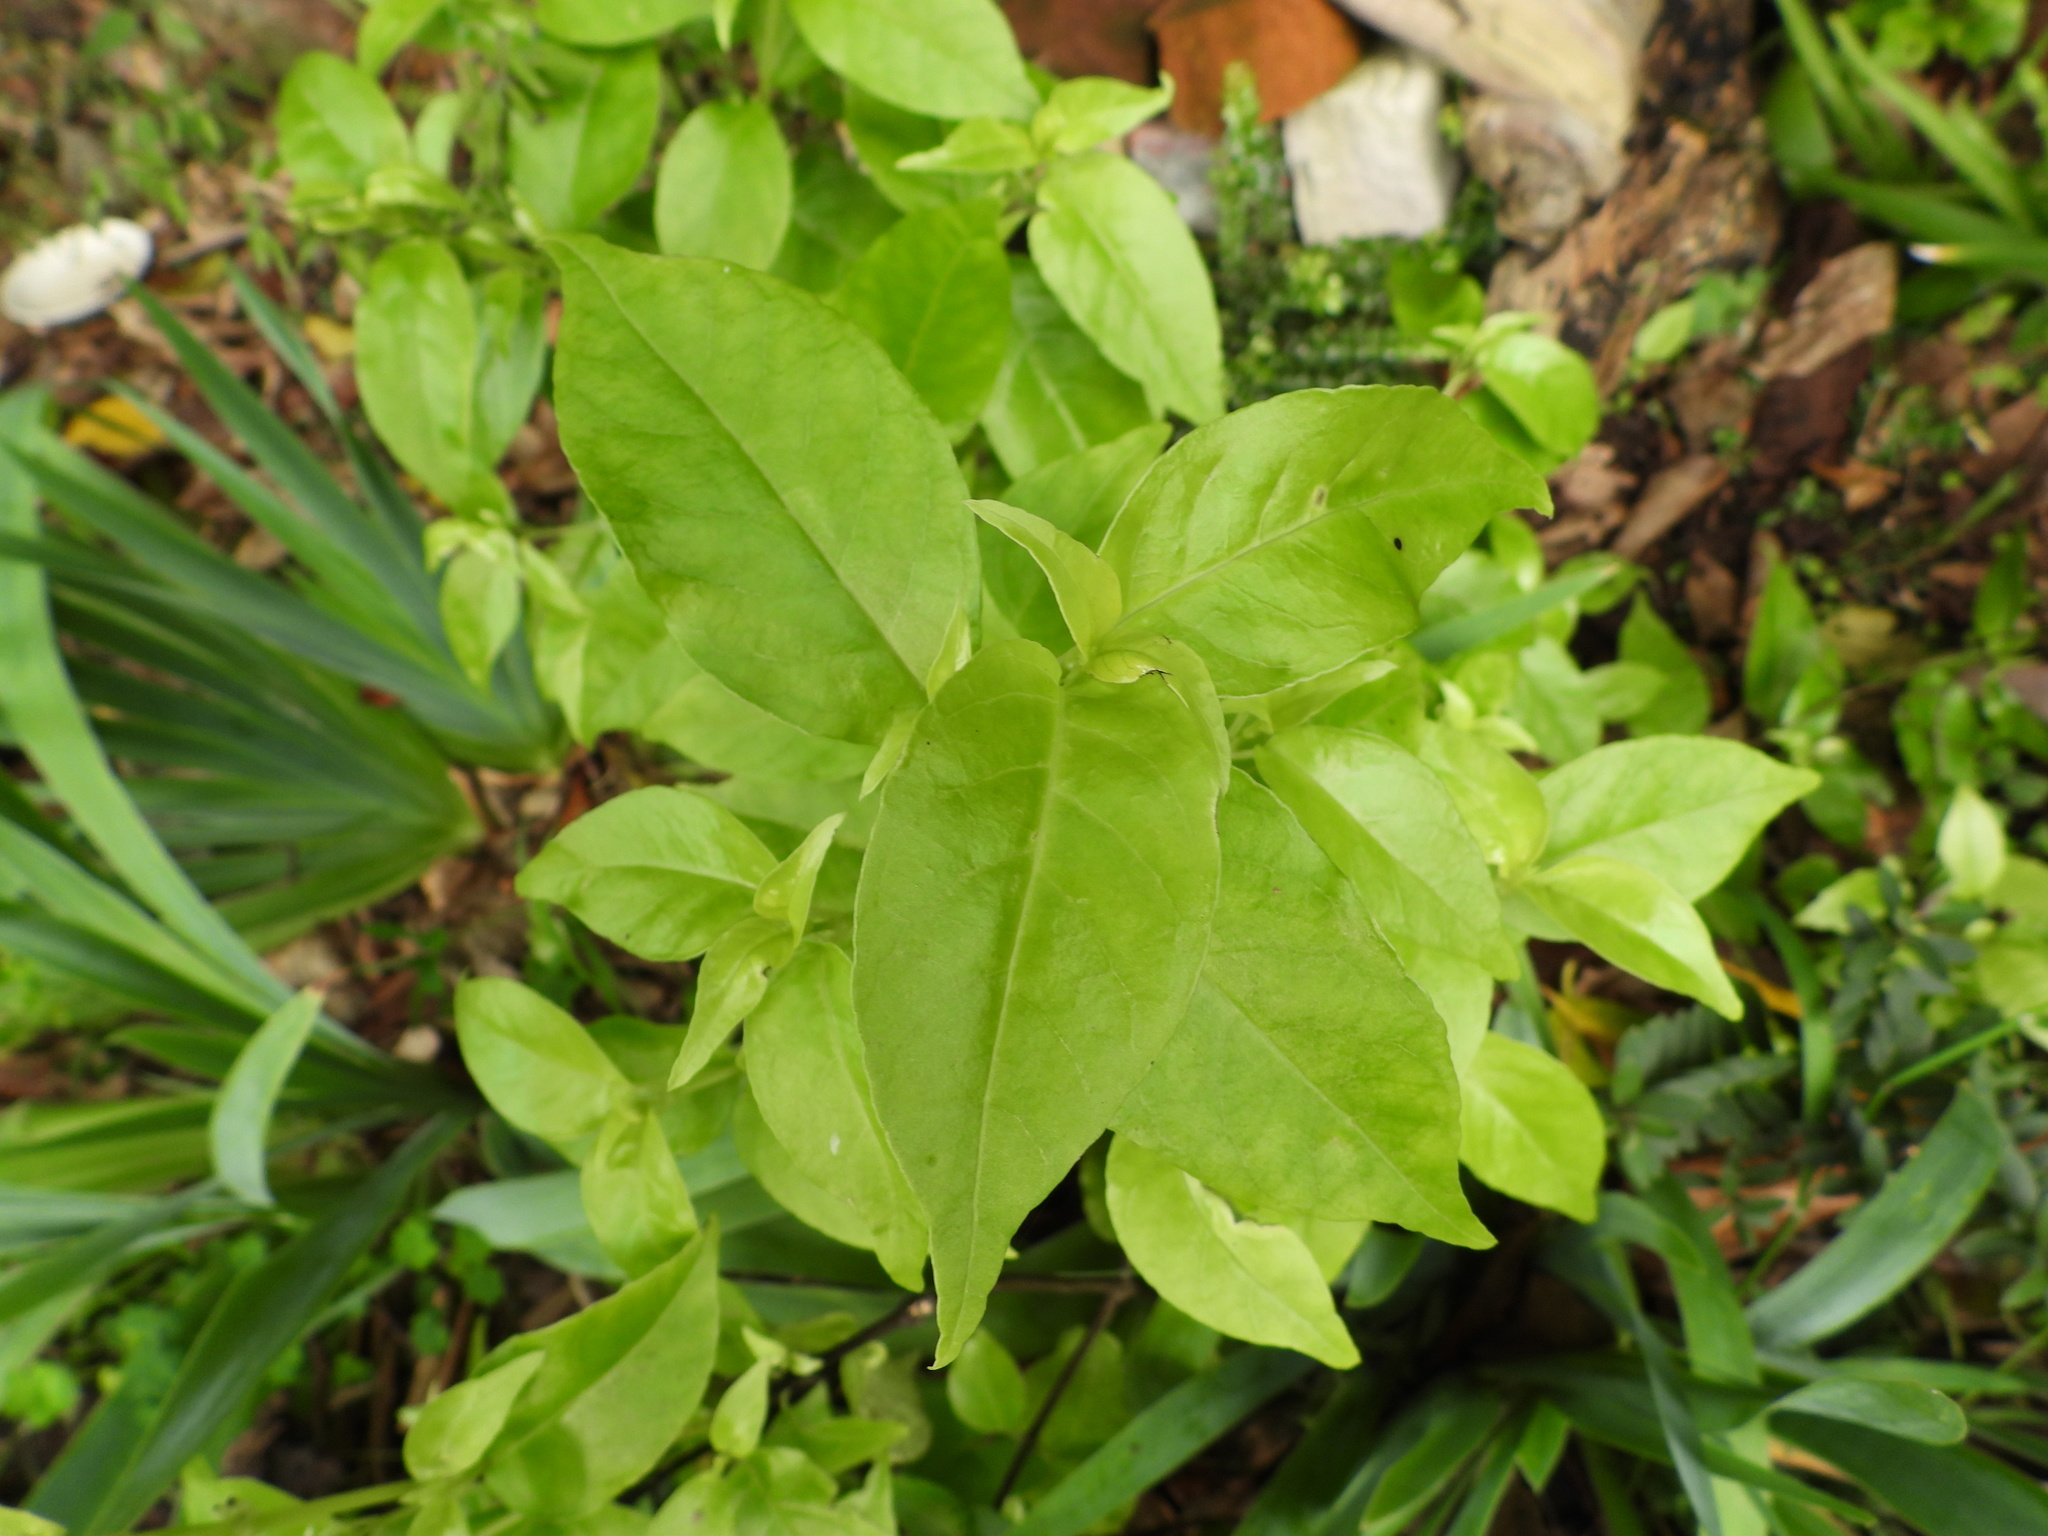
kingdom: Plantae
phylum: Tracheophyta
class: Magnoliopsida
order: Gentianales
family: Loganiaceae
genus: Geniostoma
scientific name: Geniostoma ligustrifolium
